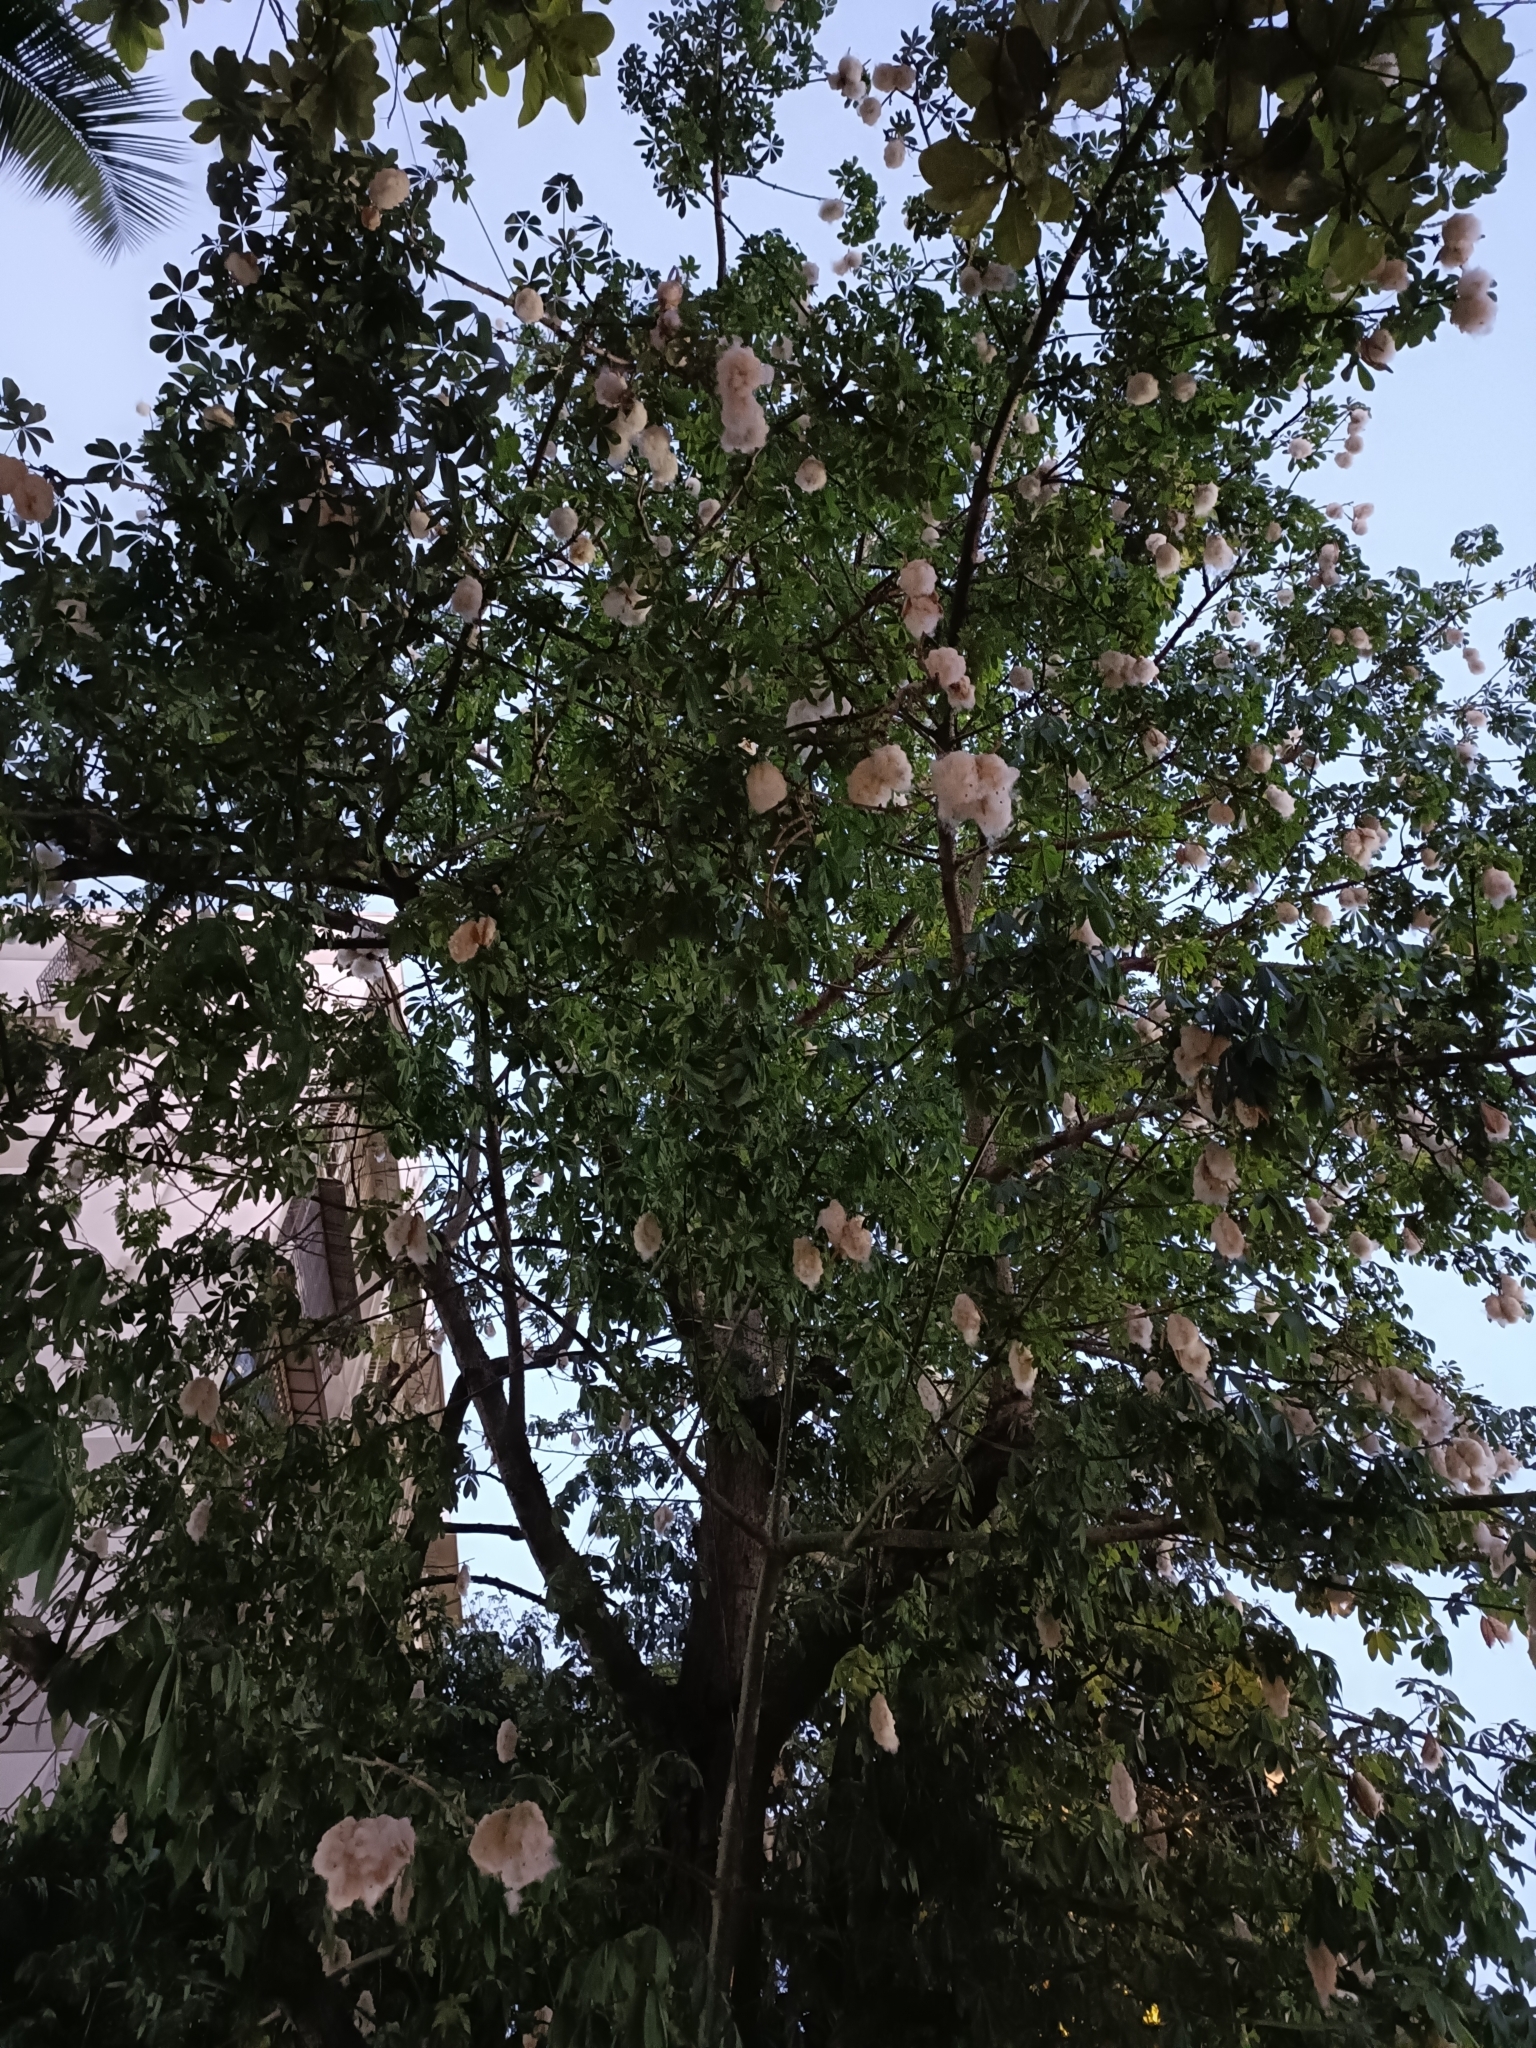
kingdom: Plantae
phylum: Tracheophyta
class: Magnoliopsida
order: Malvales
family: Malvaceae
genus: Ceiba
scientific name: Ceiba pentandra
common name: Kapok
